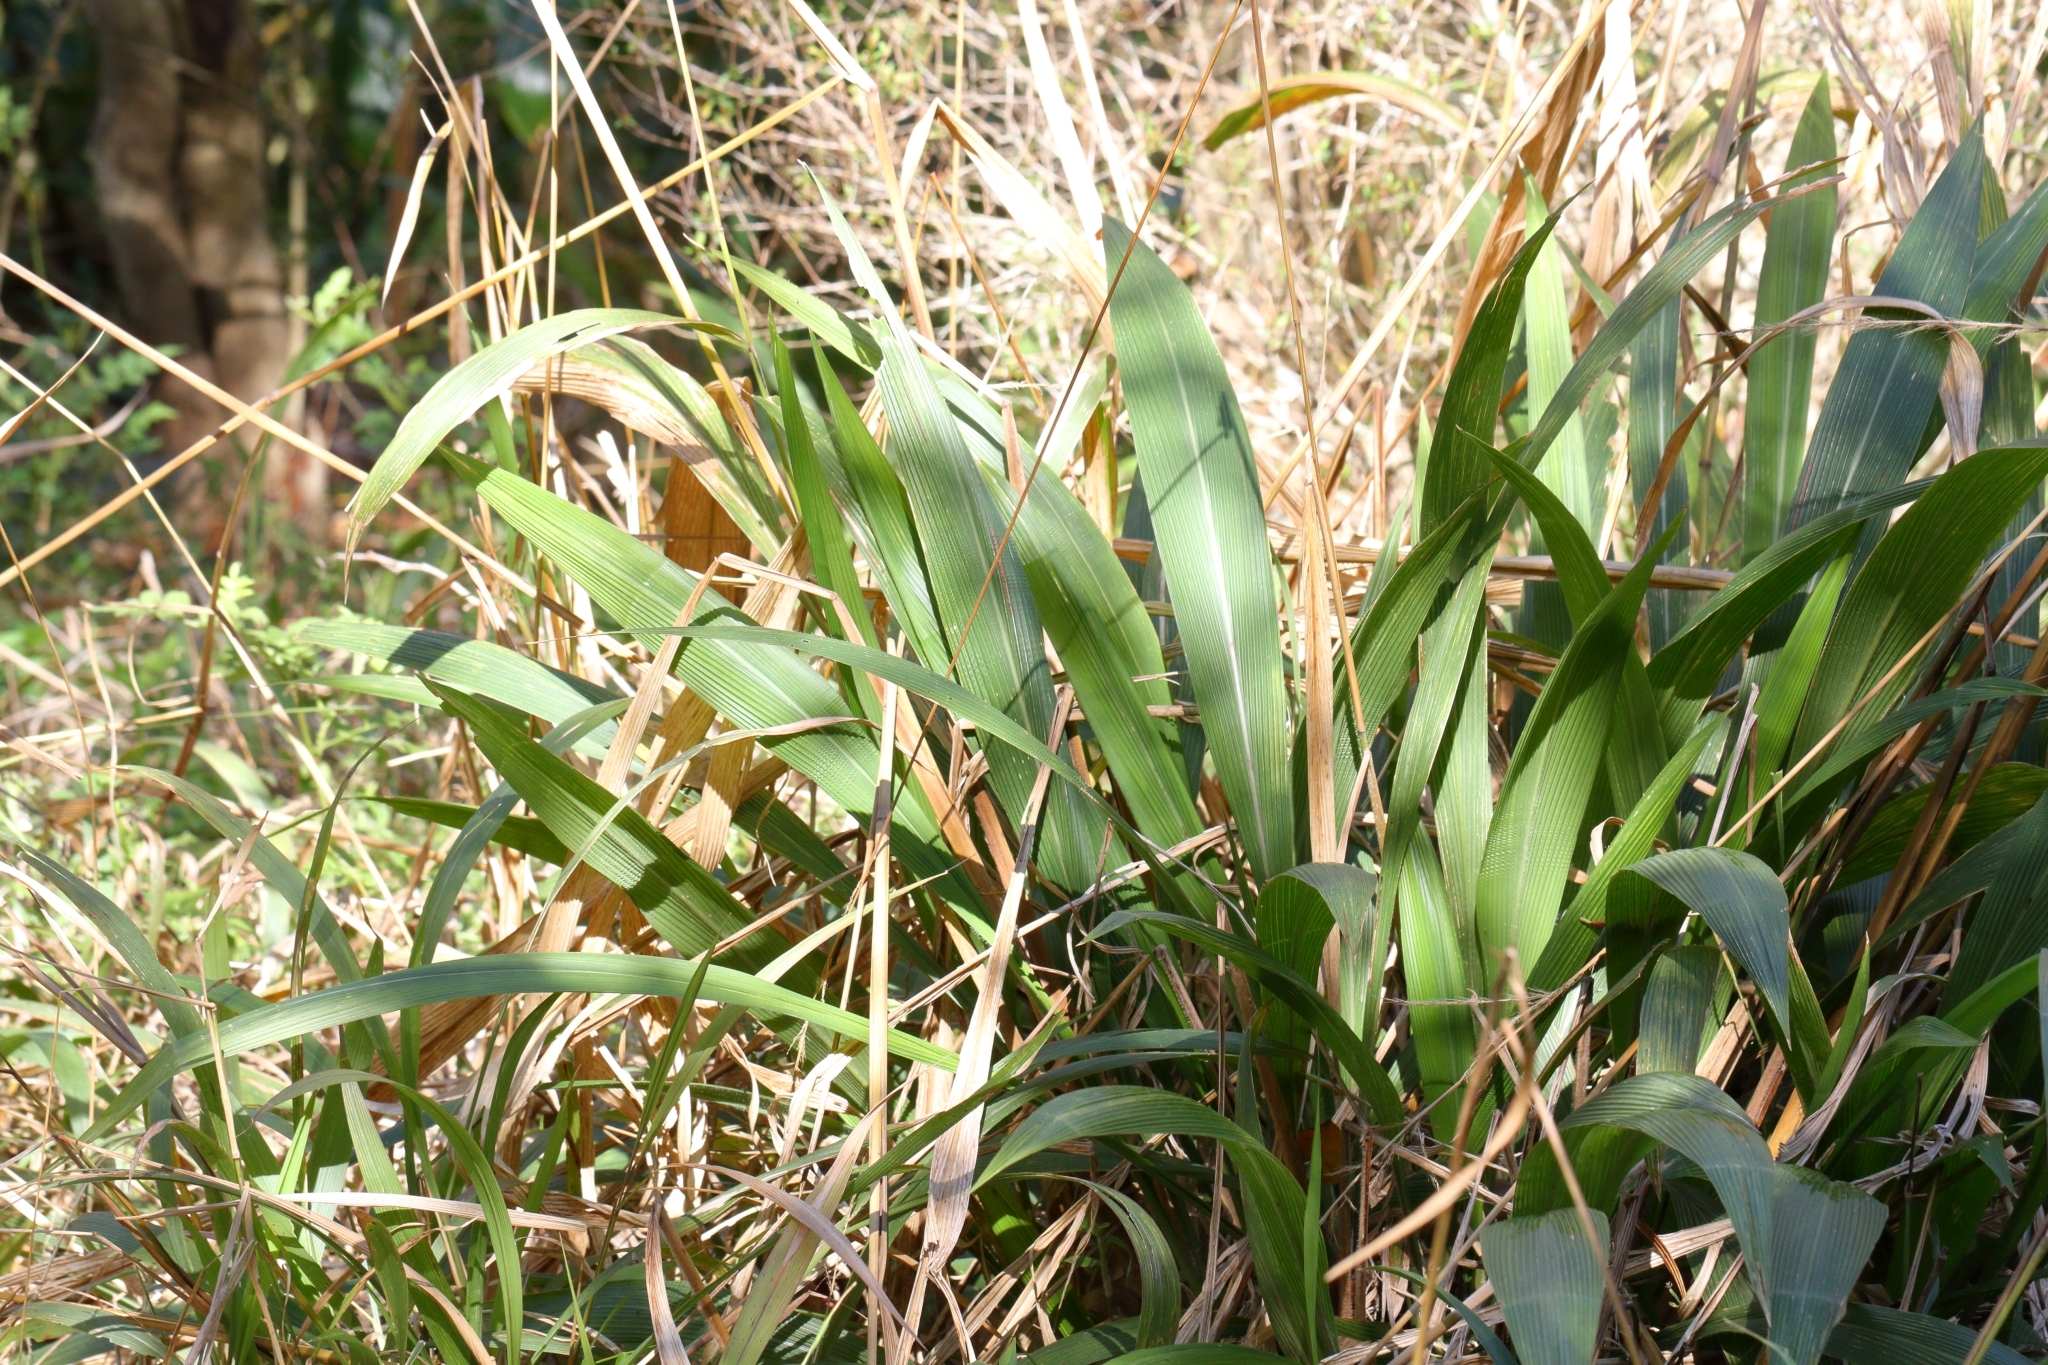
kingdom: Plantae
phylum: Tracheophyta
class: Liliopsida
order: Poales
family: Poaceae
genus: Setaria
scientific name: Setaria megaphylla
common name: Bigleaf bristlegrass
